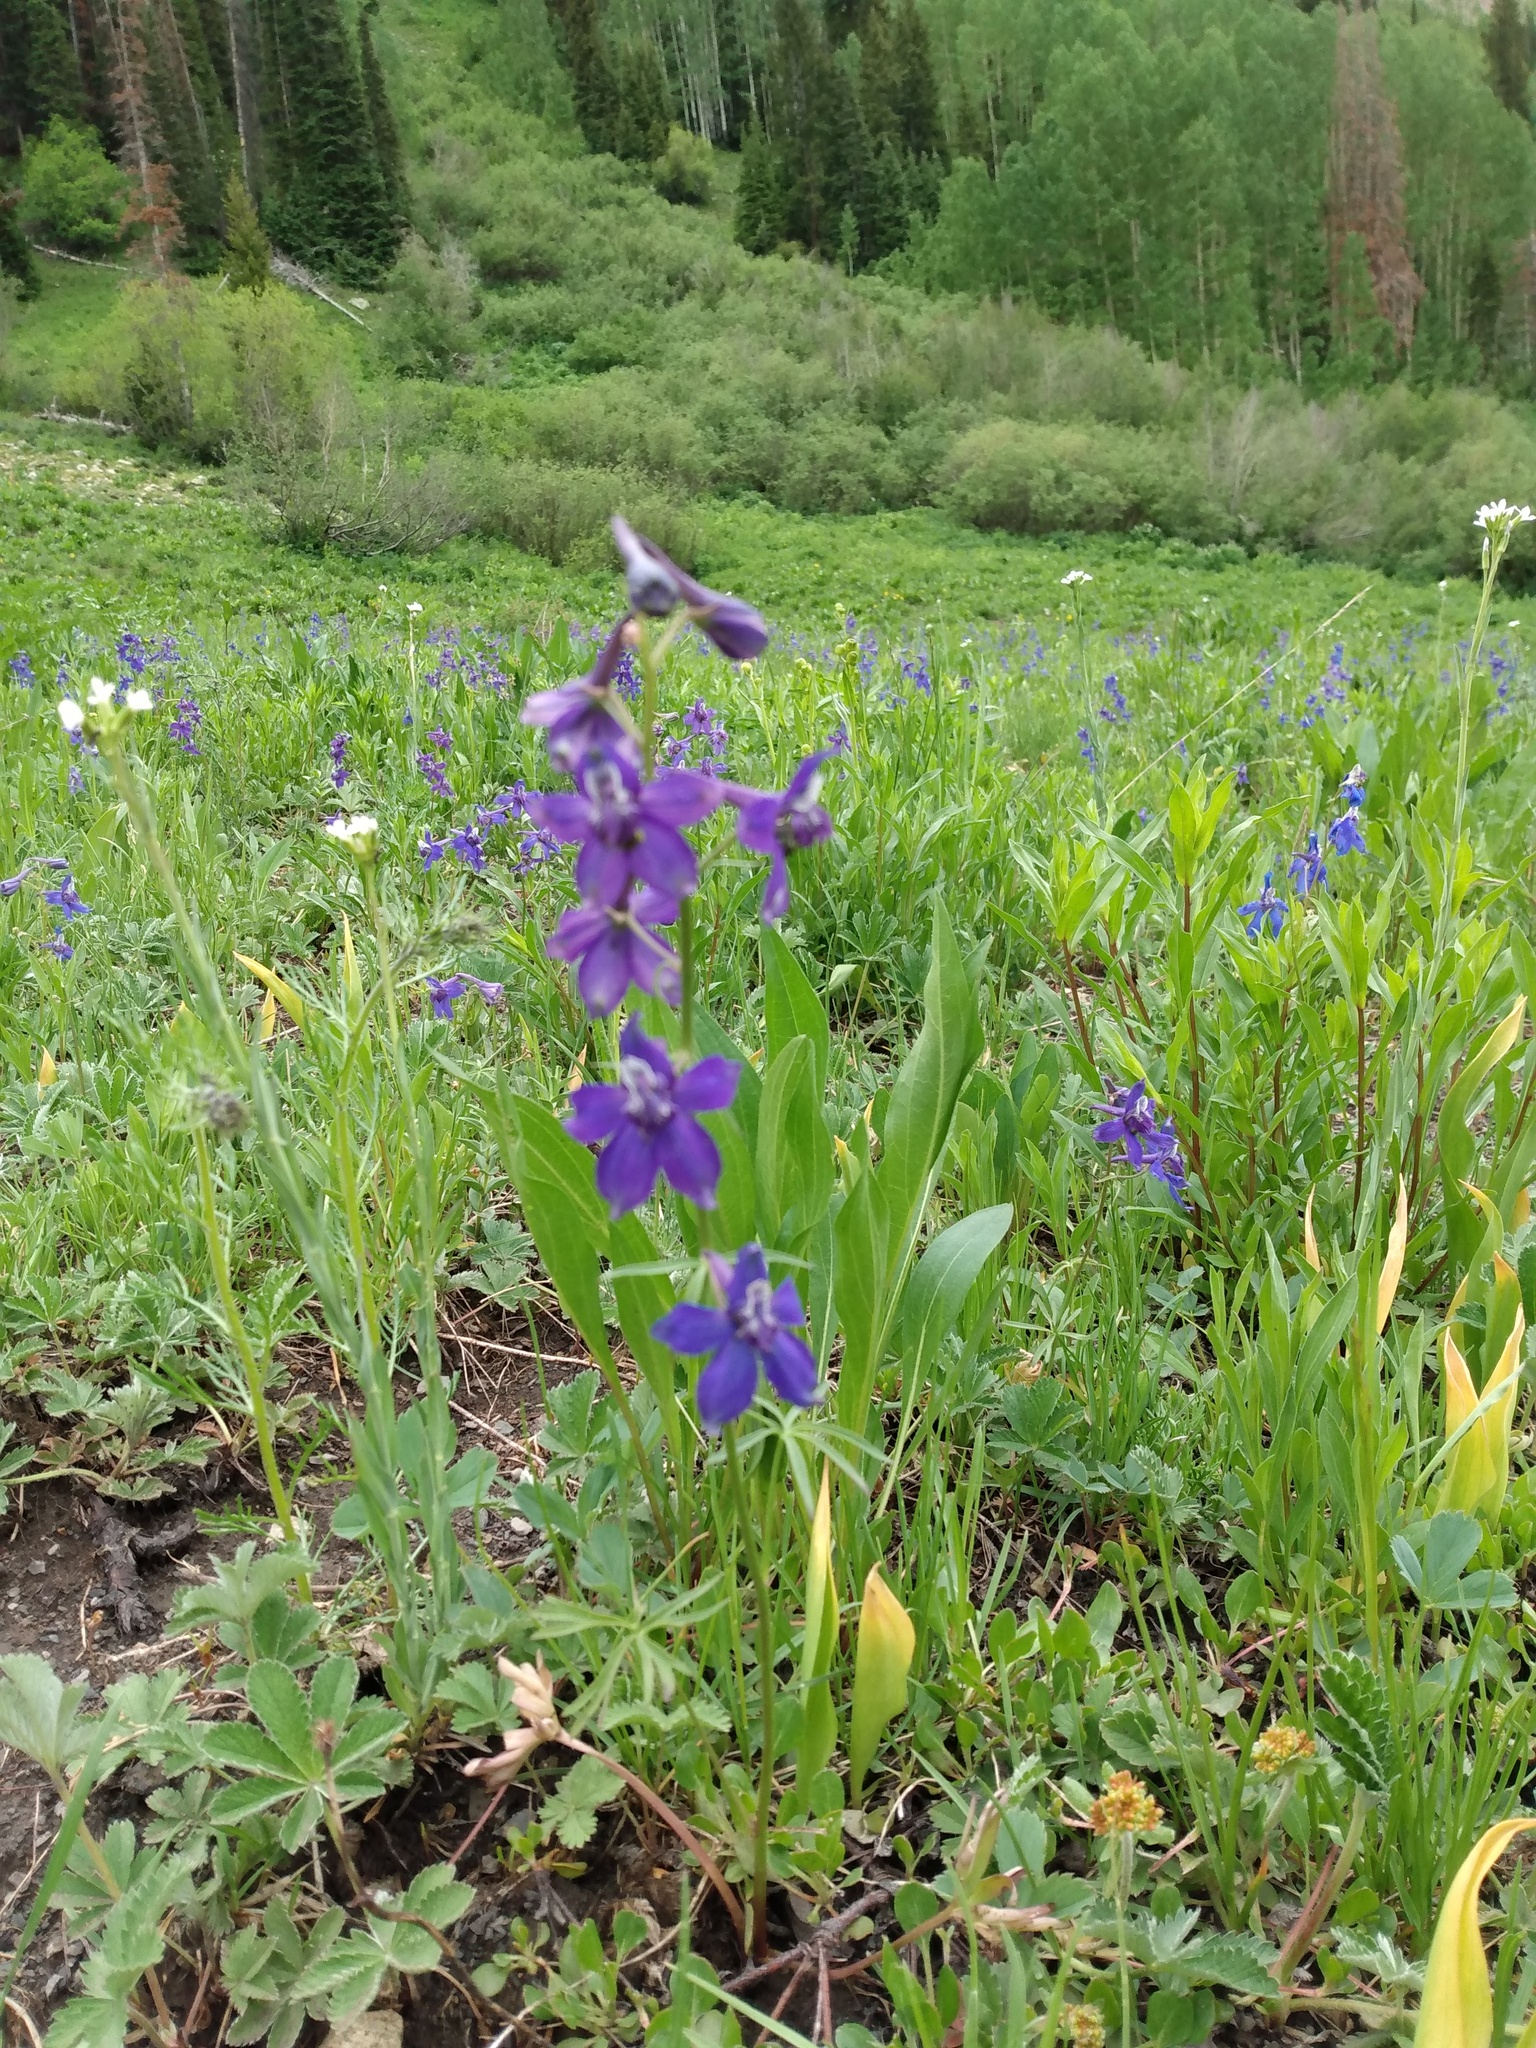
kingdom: Plantae
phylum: Tracheophyta
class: Magnoliopsida
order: Ranunculales
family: Ranunculaceae
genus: Delphinium
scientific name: Delphinium nuttallianum
